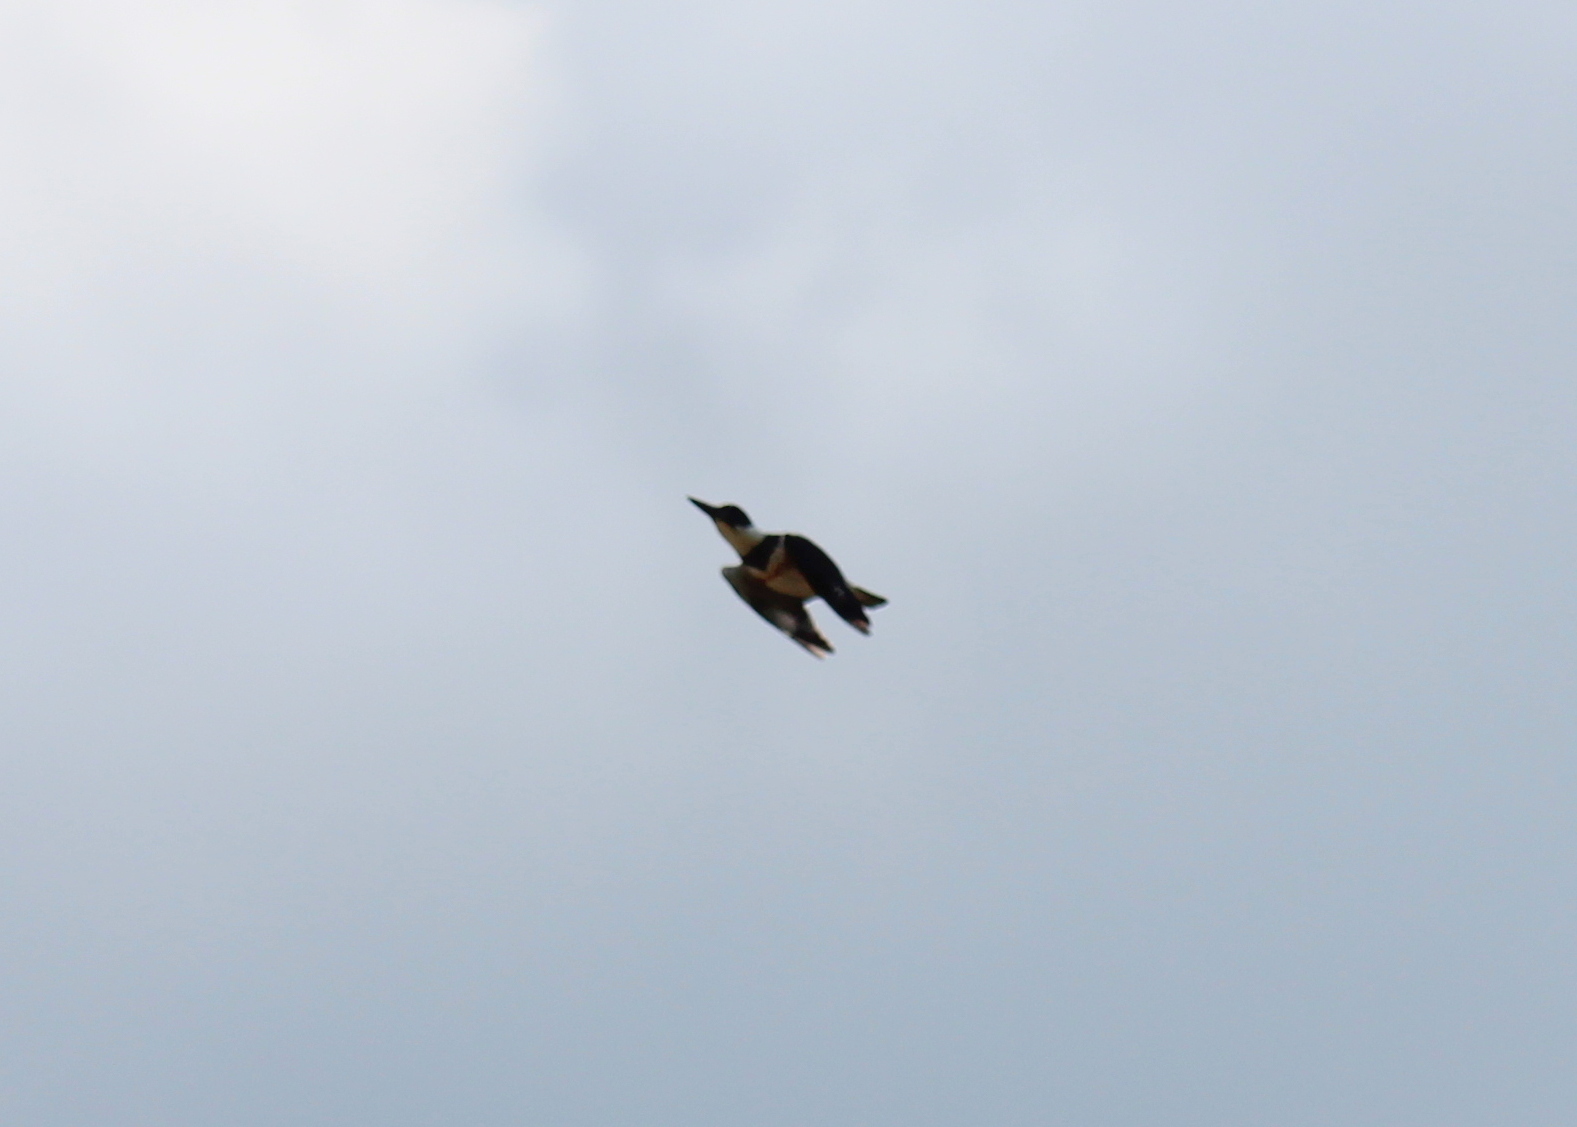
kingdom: Animalia
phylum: Chordata
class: Aves
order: Coraciiformes
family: Alcedinidae
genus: Megaceryle
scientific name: Megaceryle alcyon
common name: Belted kingfisher
